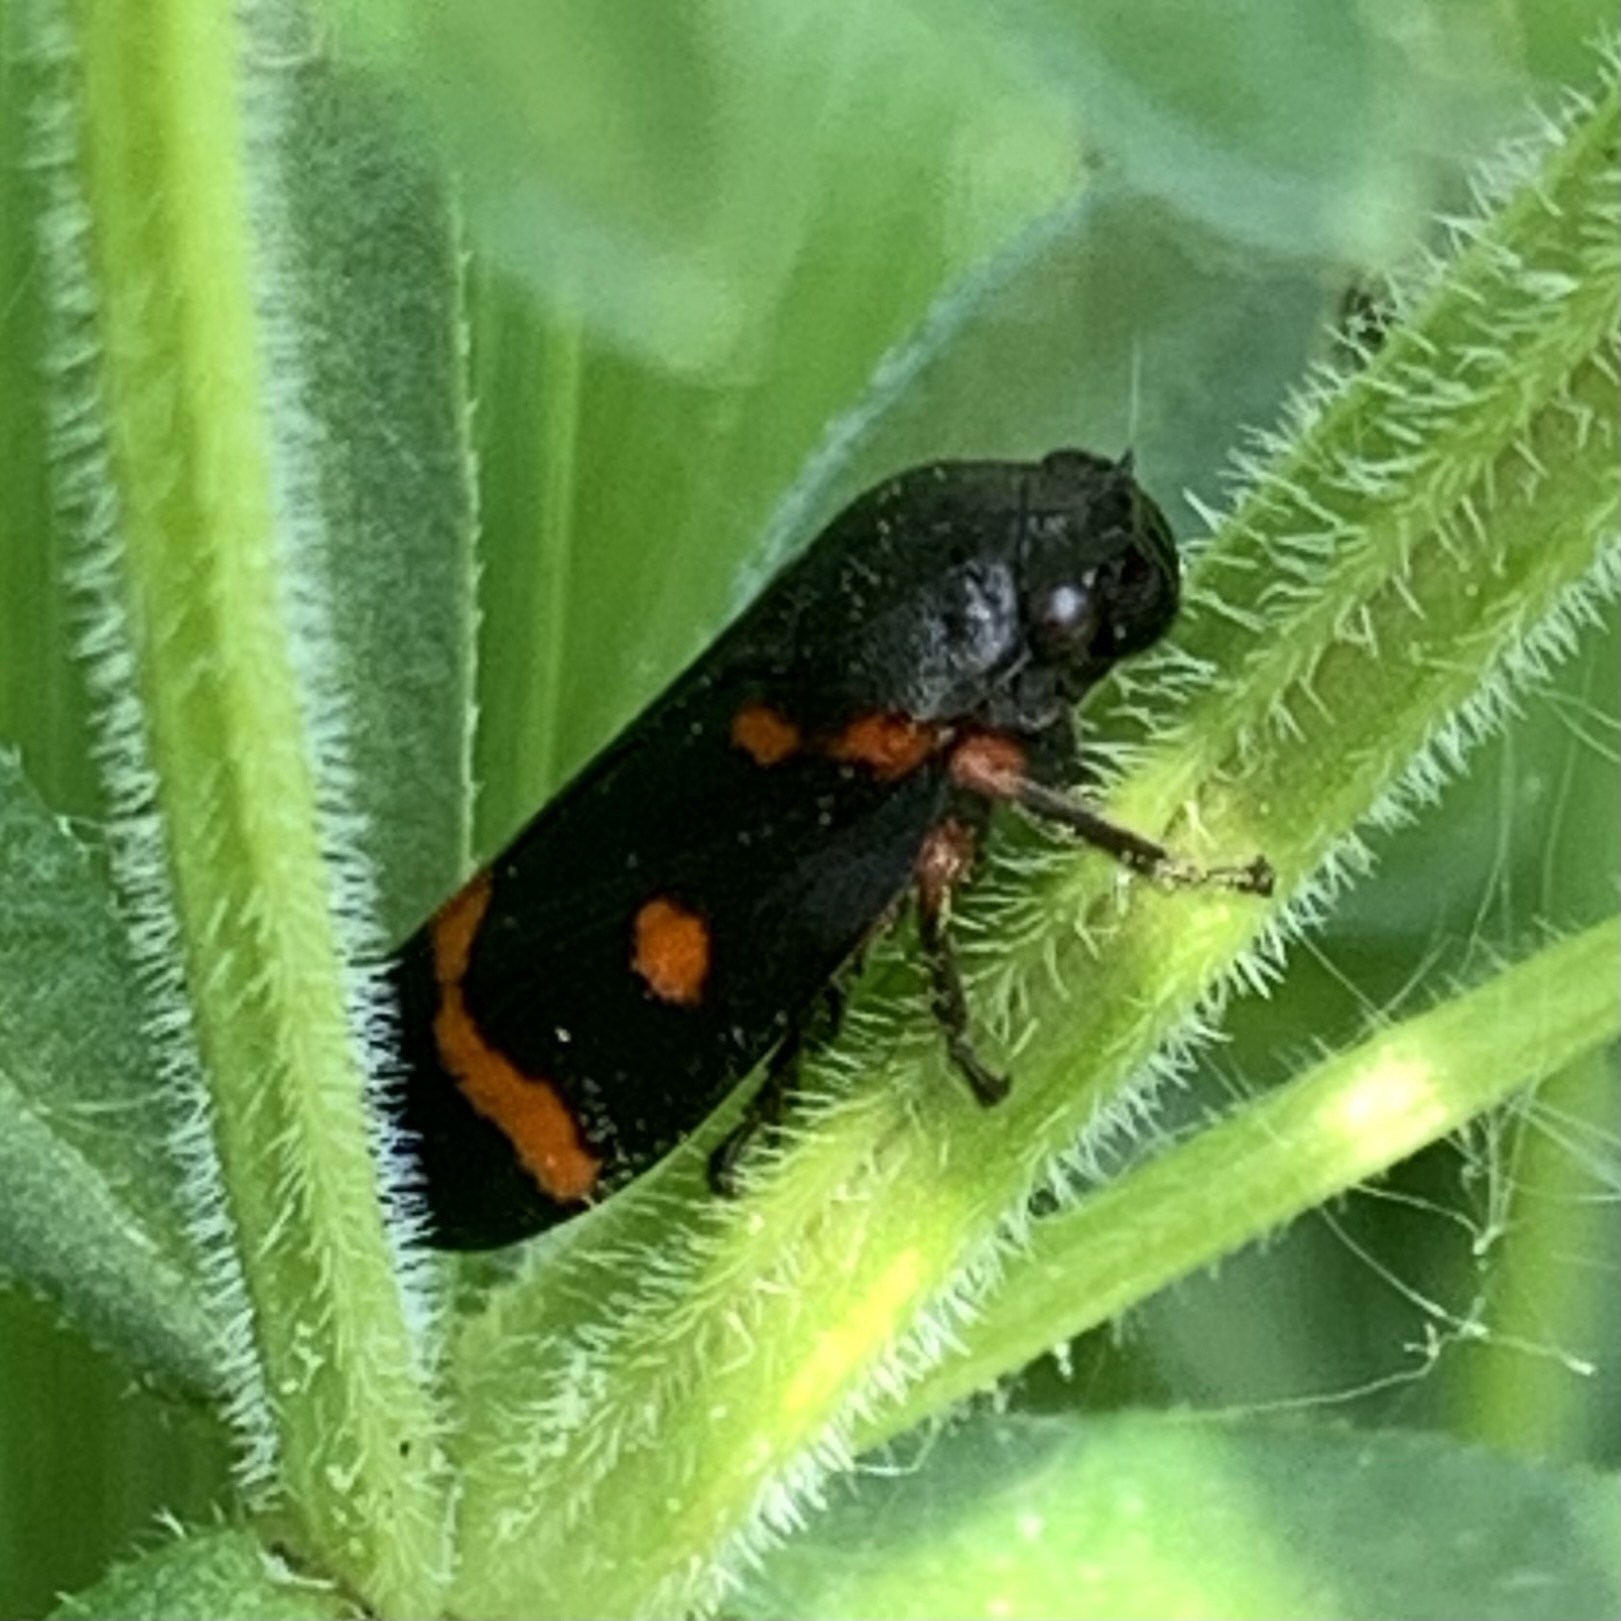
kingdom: Animalia
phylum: Arthropoda
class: Insecta
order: Hemiptera
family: Cercopidae
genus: Cercopis
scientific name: Cercopis intermedia
